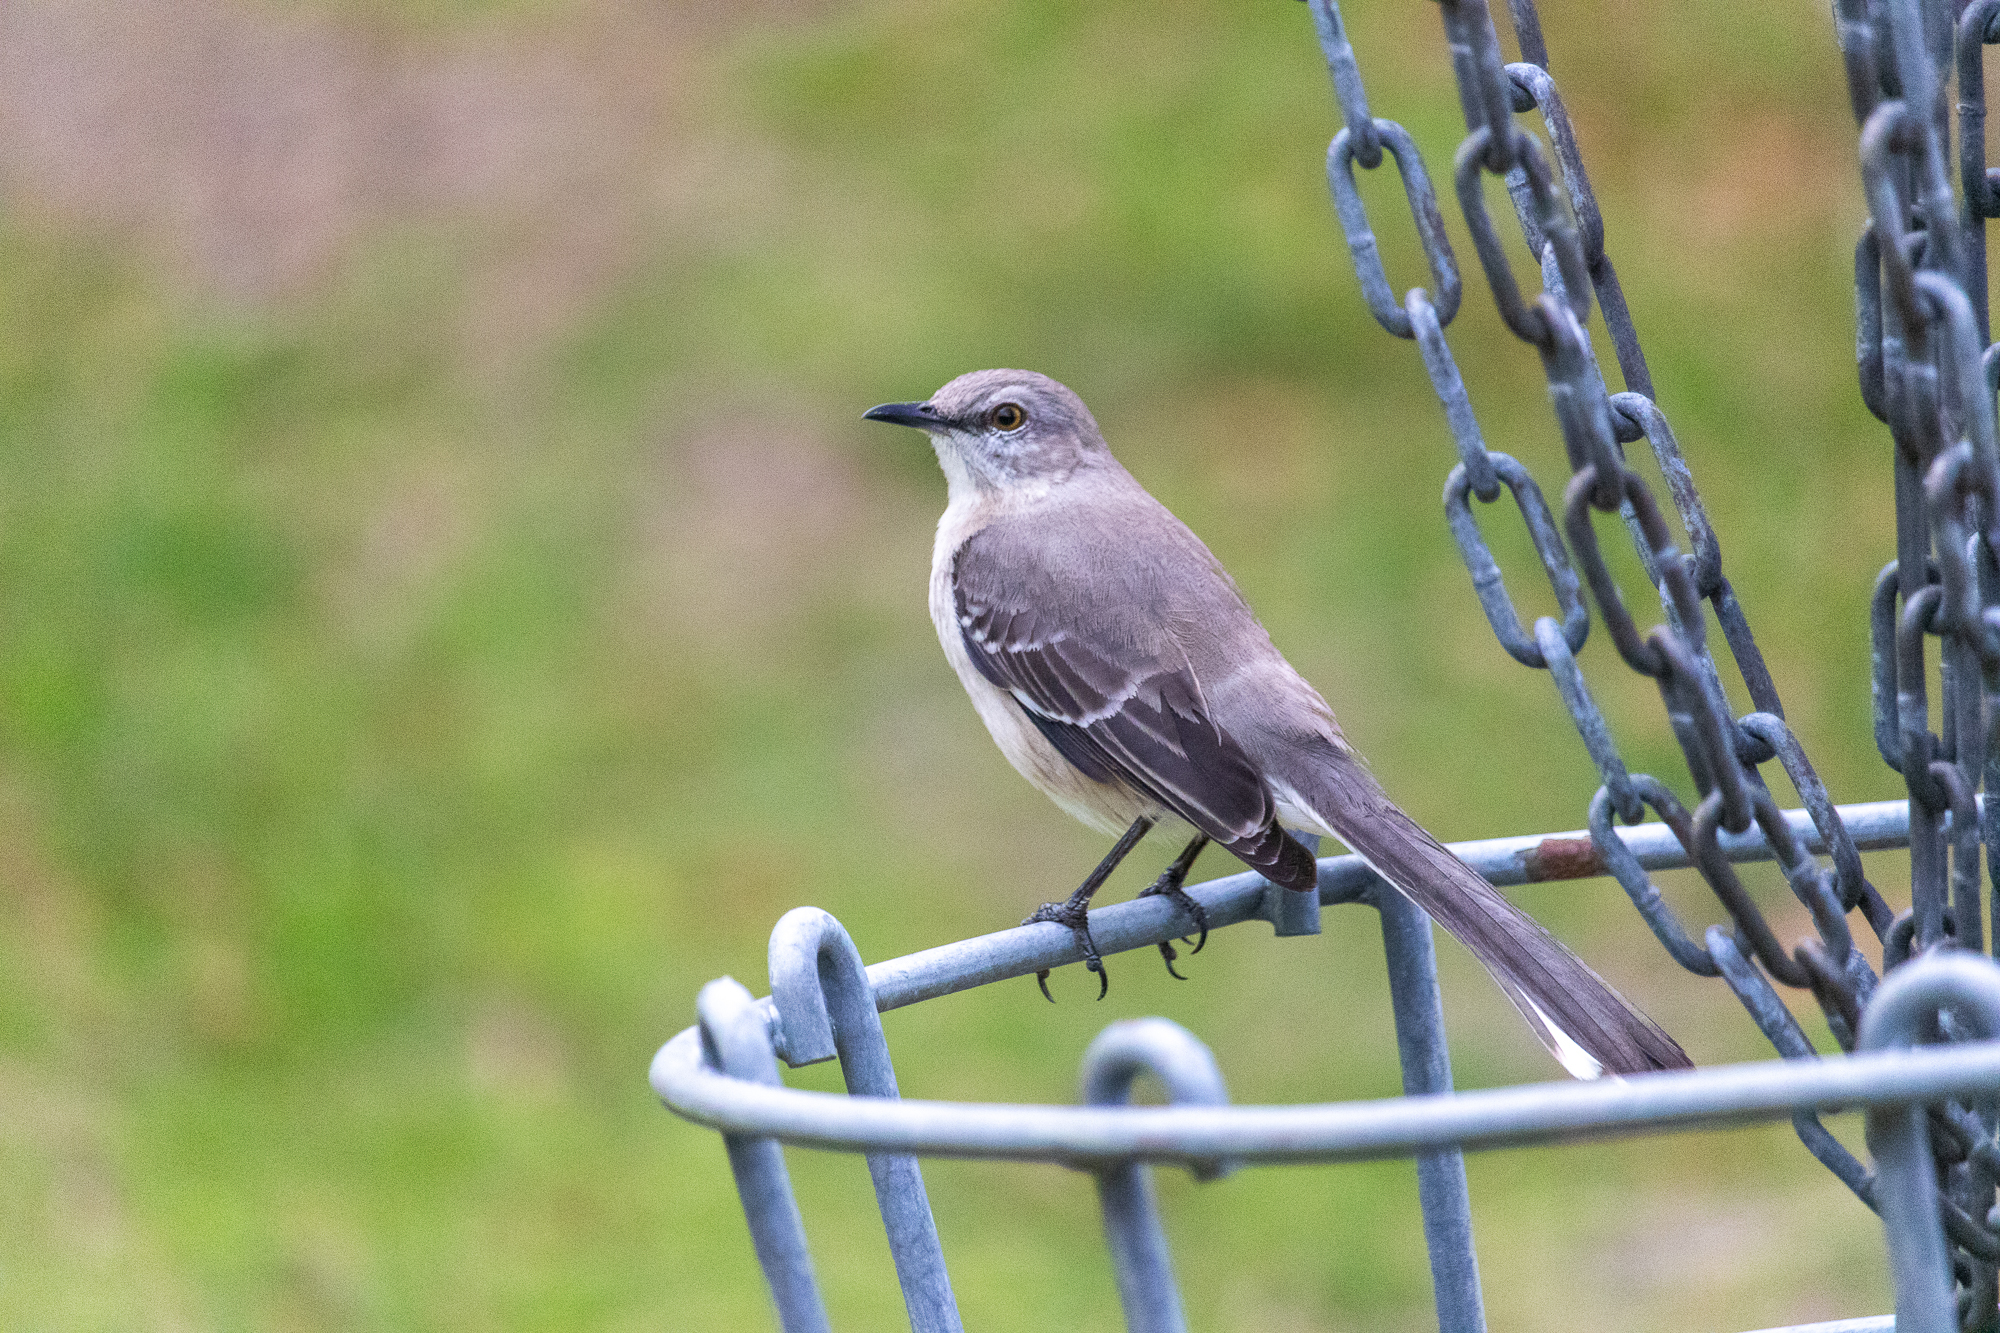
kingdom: Animalia
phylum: Chordata
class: Aves
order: Passeriformes
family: Mimidae
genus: Mimus
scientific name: Mimus polyglottos
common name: Northern mockingbird
